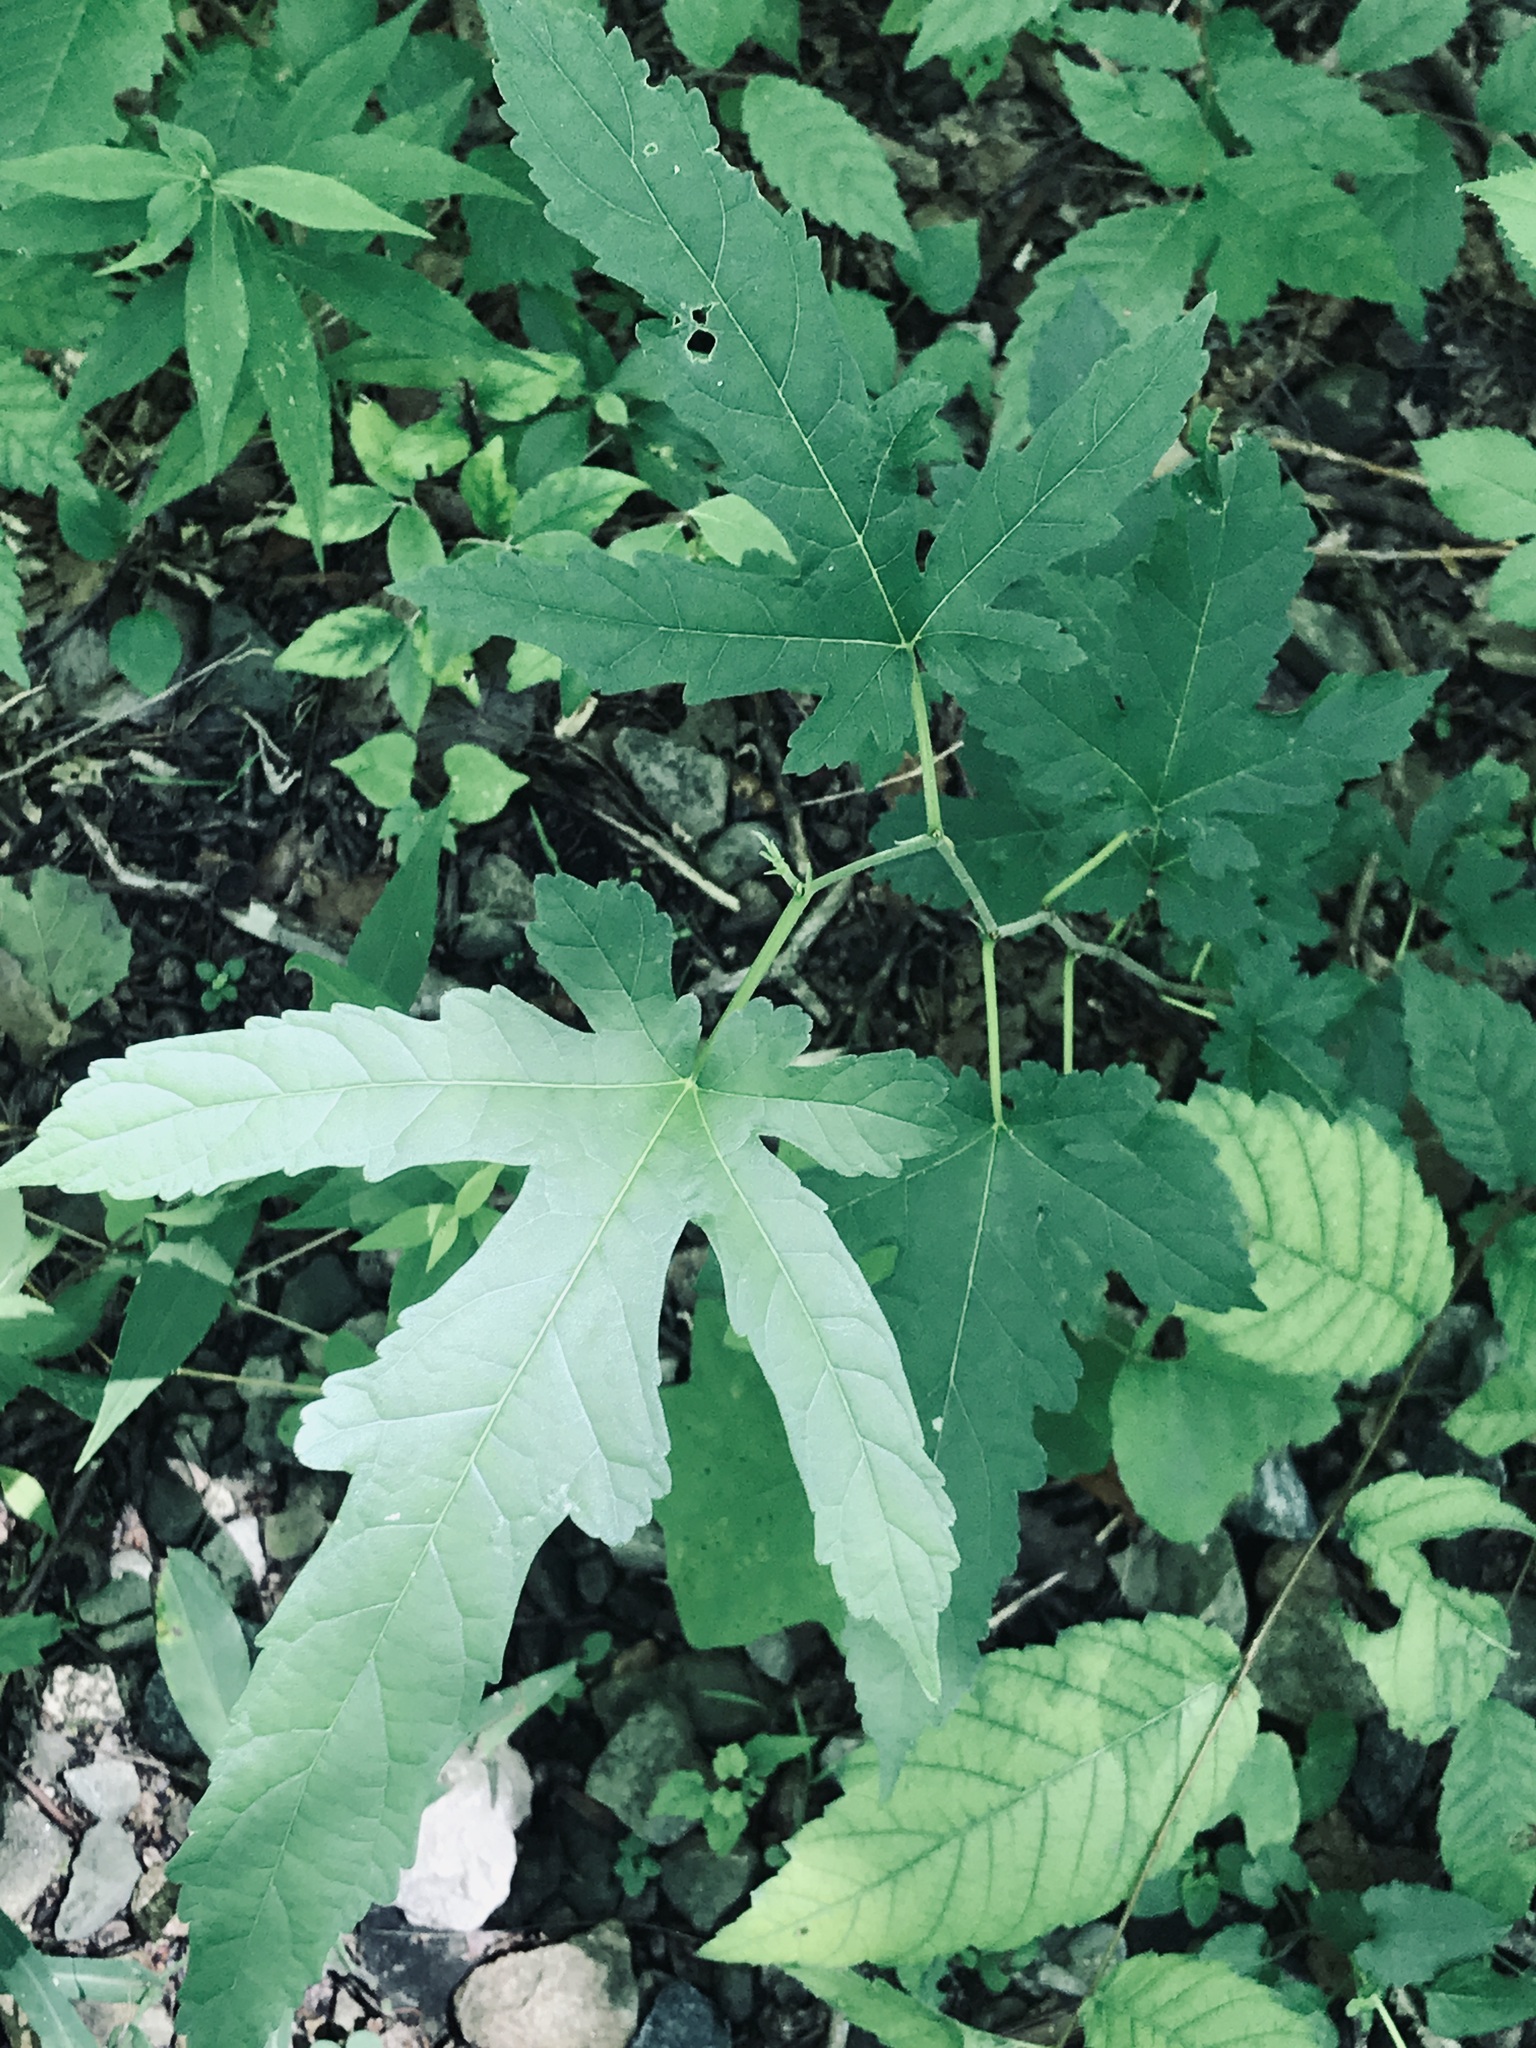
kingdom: Plantae
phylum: Tracheophyta
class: Magnoliopsida
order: Rosales
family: Moraceae
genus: Morus
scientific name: Morus indica
